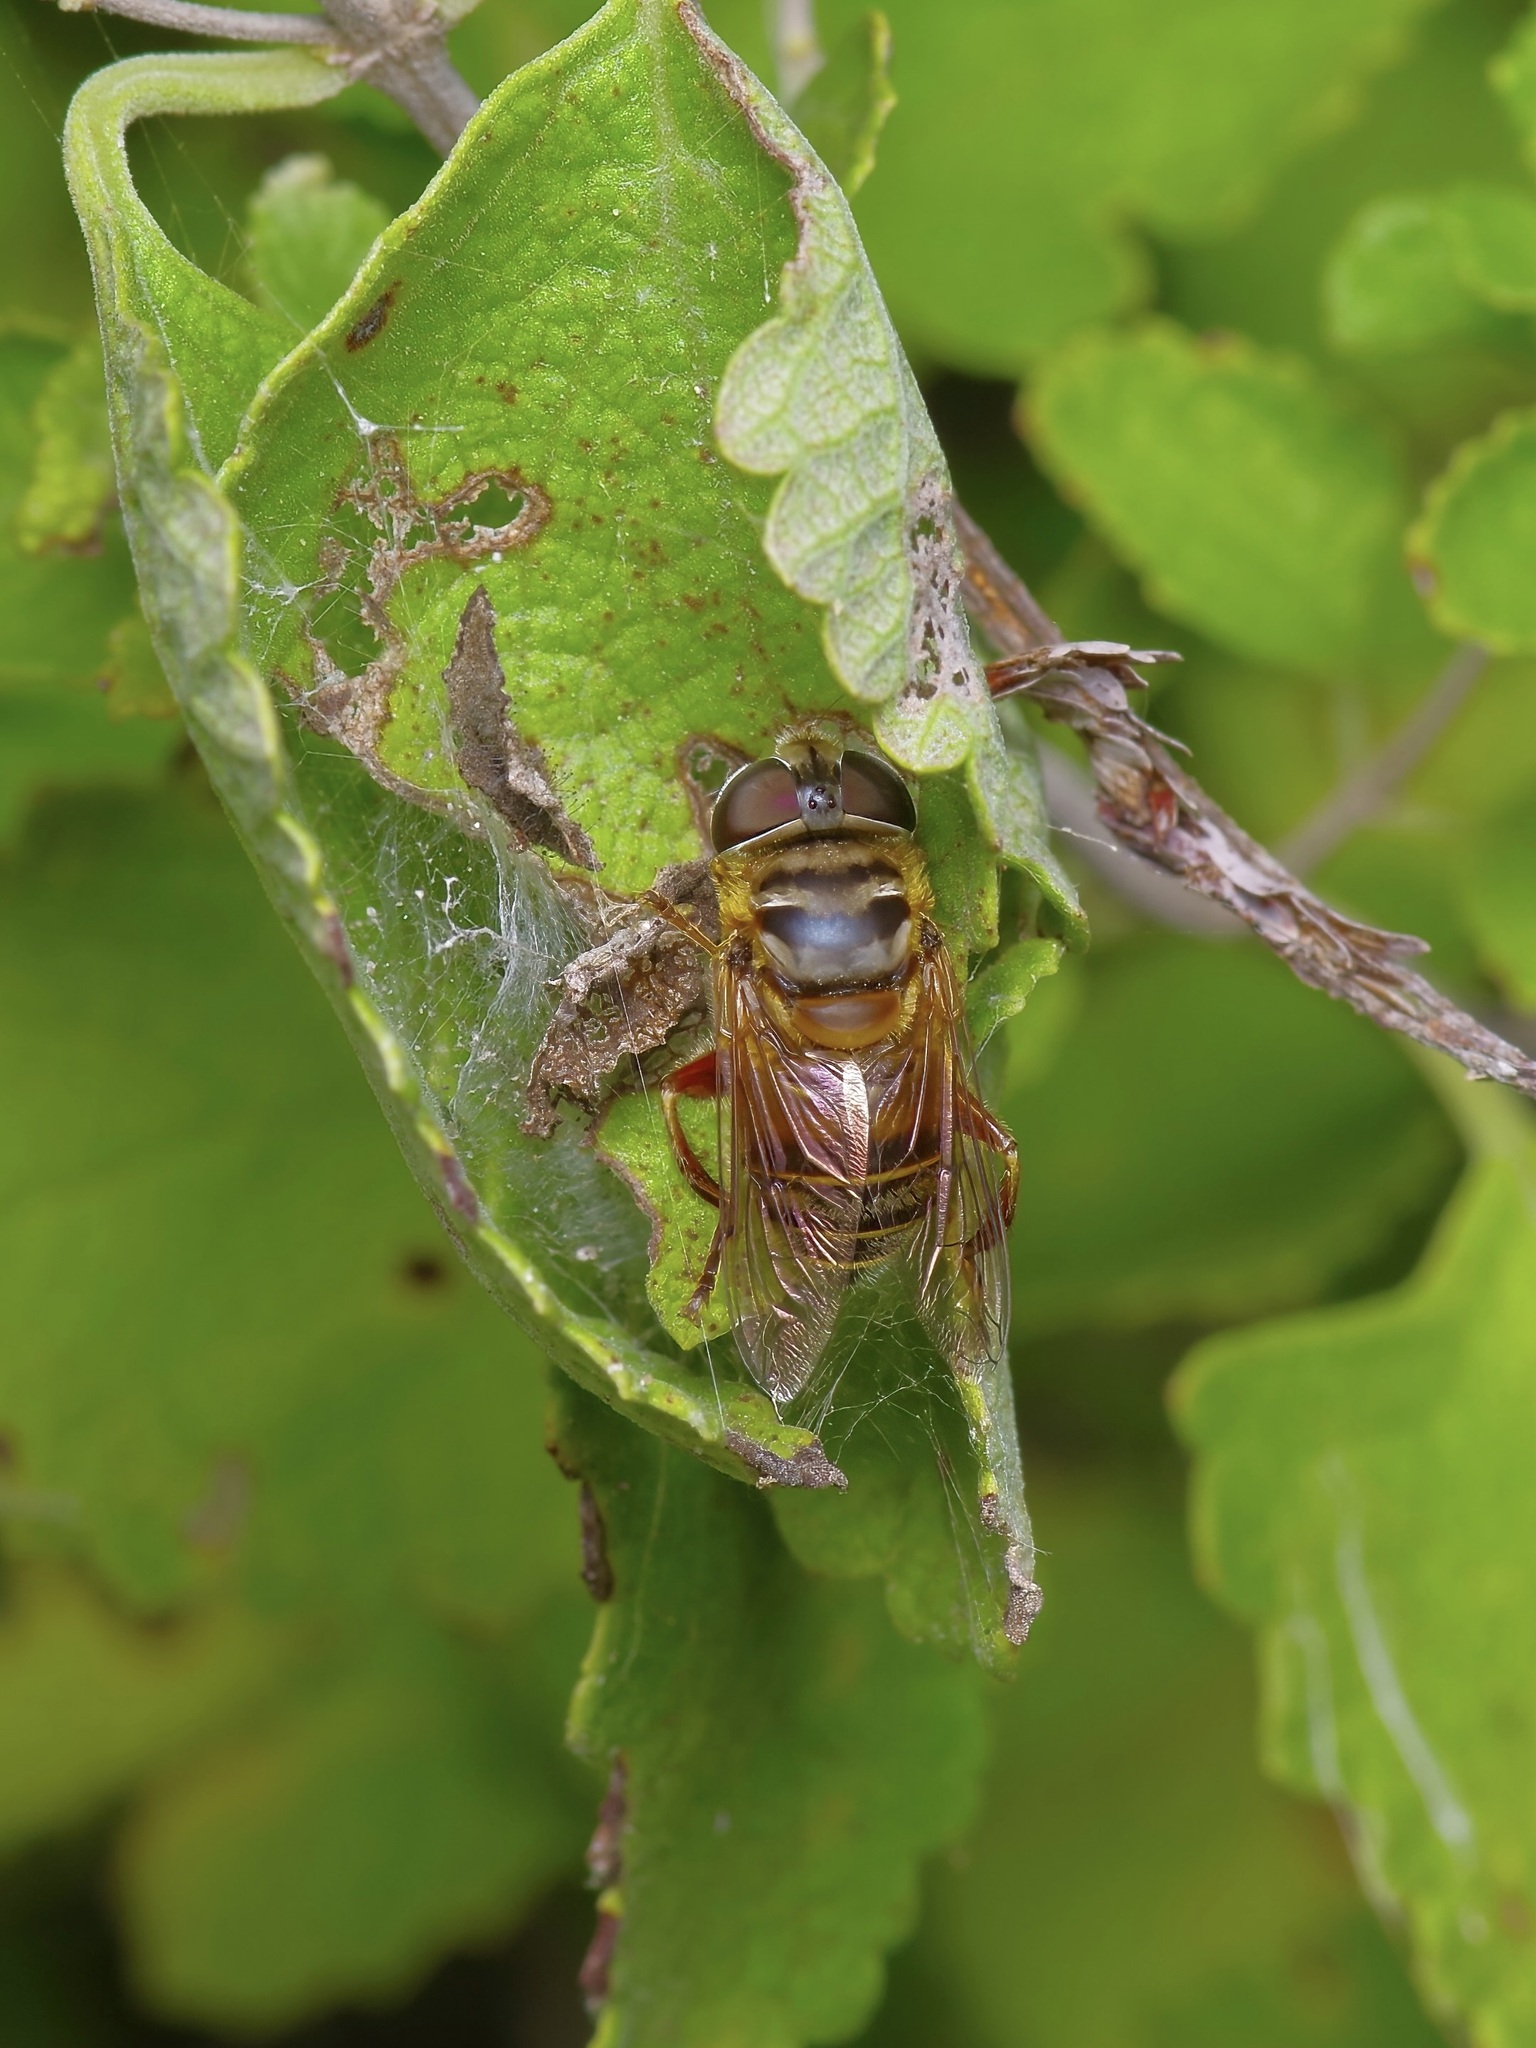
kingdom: Animalia
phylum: Arthropoda
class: Insecta
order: Diptera
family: Syrphidae
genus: Palpada
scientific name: Palpada vinetorum
